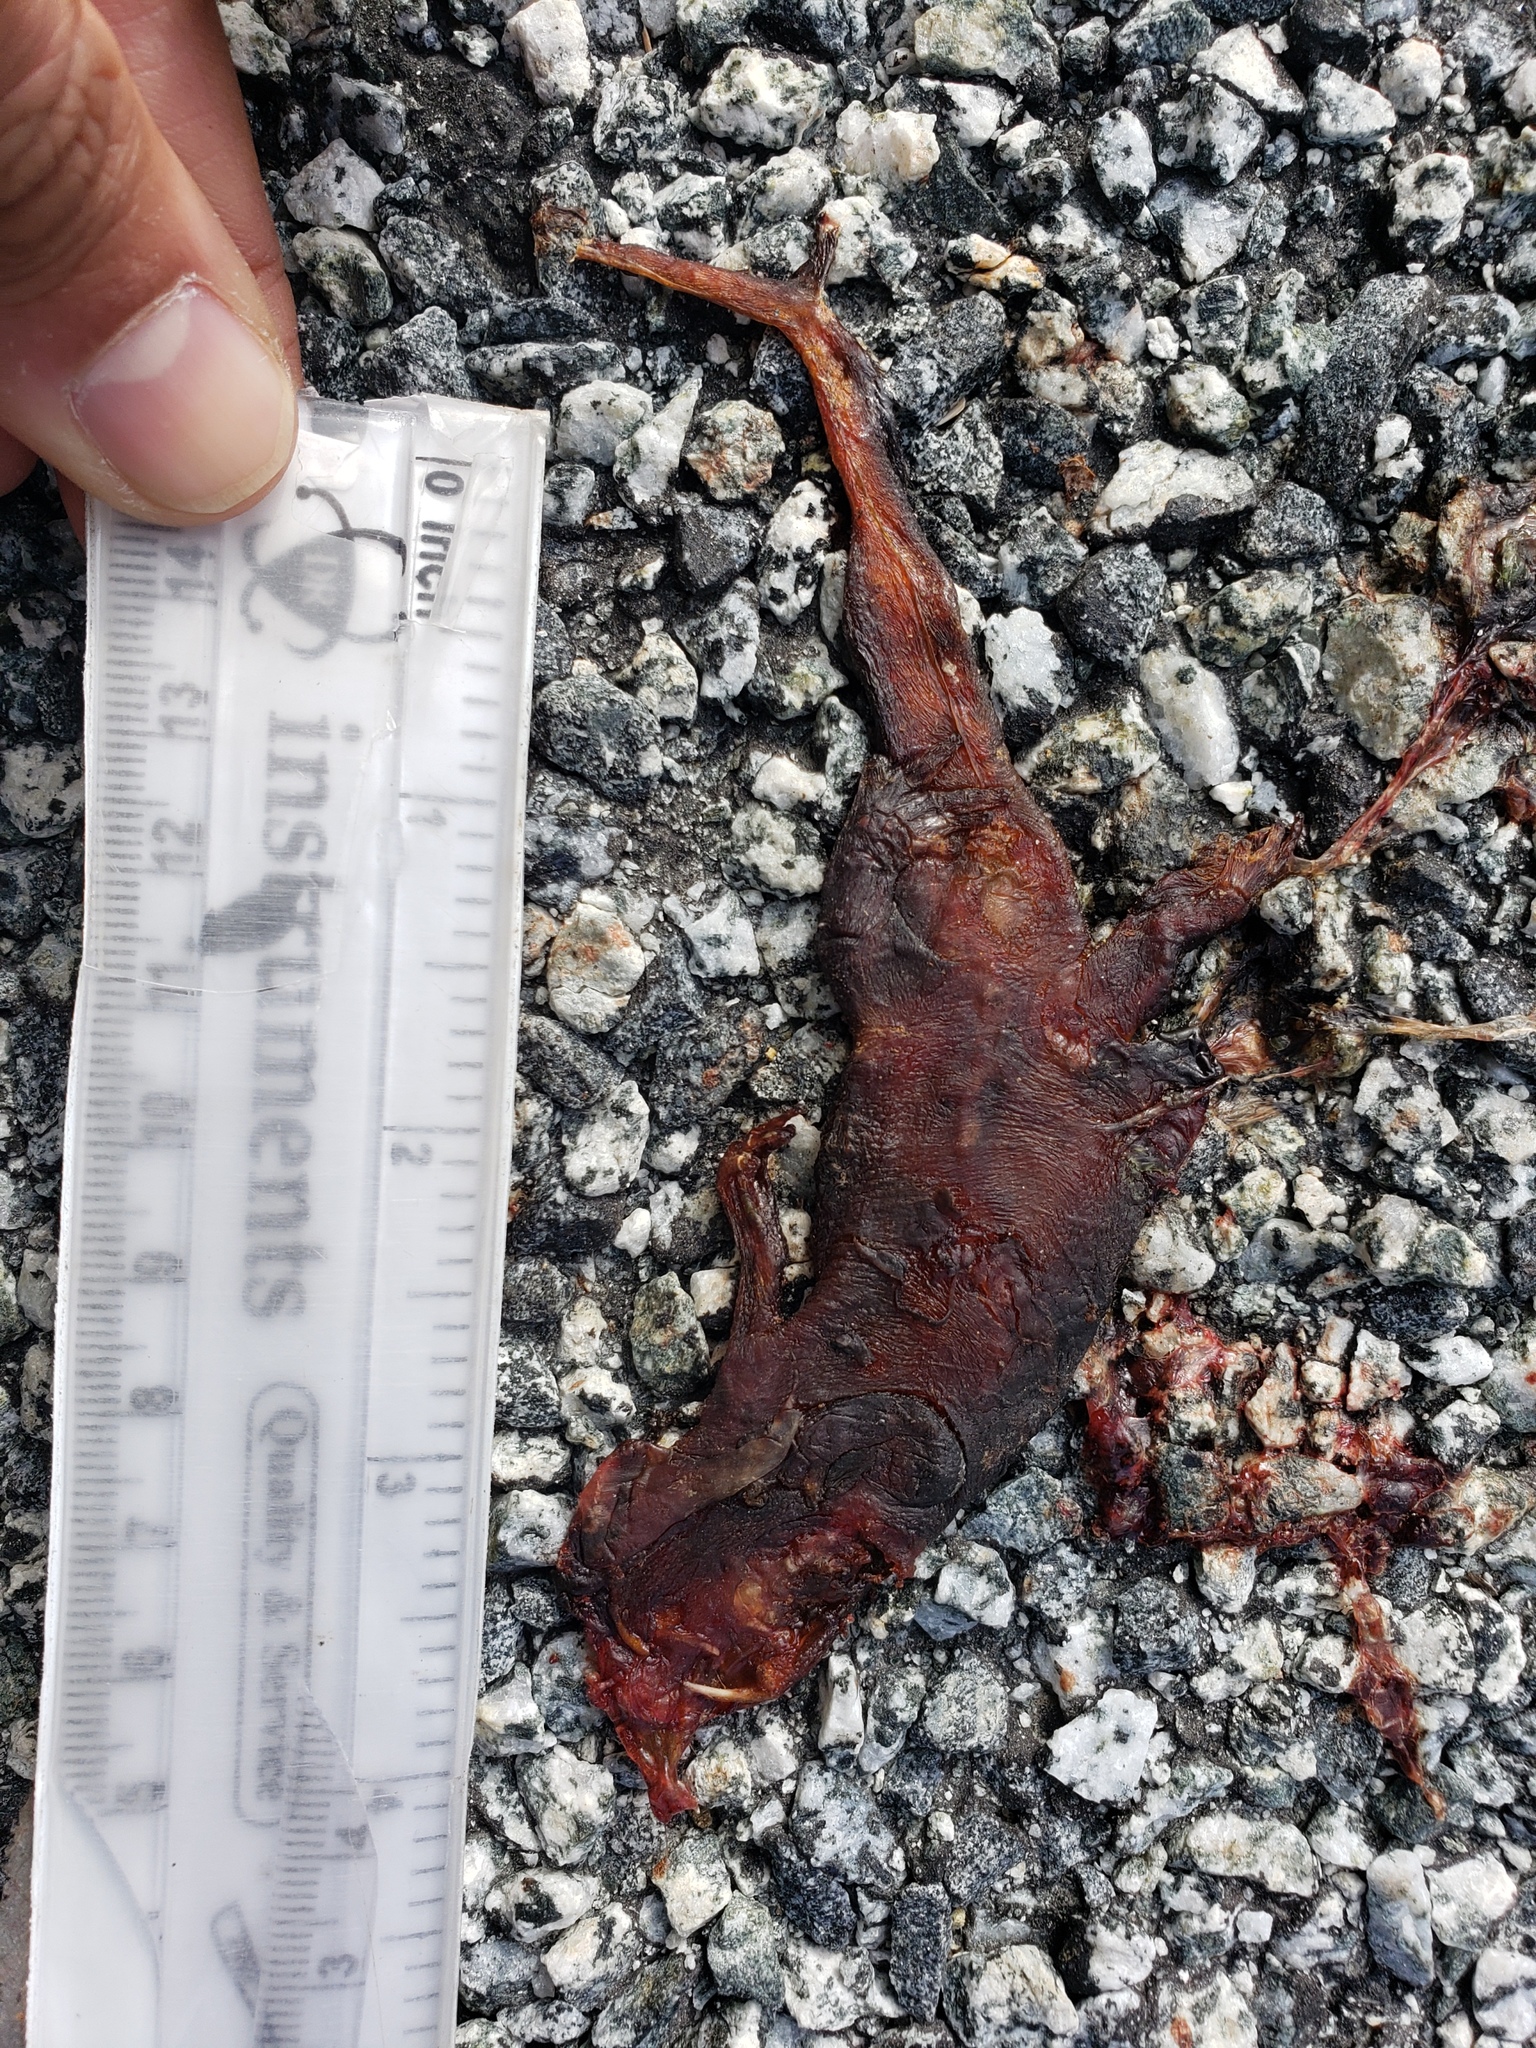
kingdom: Animalia
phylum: Chordata
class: Amphibia
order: Caudata
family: Salamandridae
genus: Taricha
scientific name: Taricha
